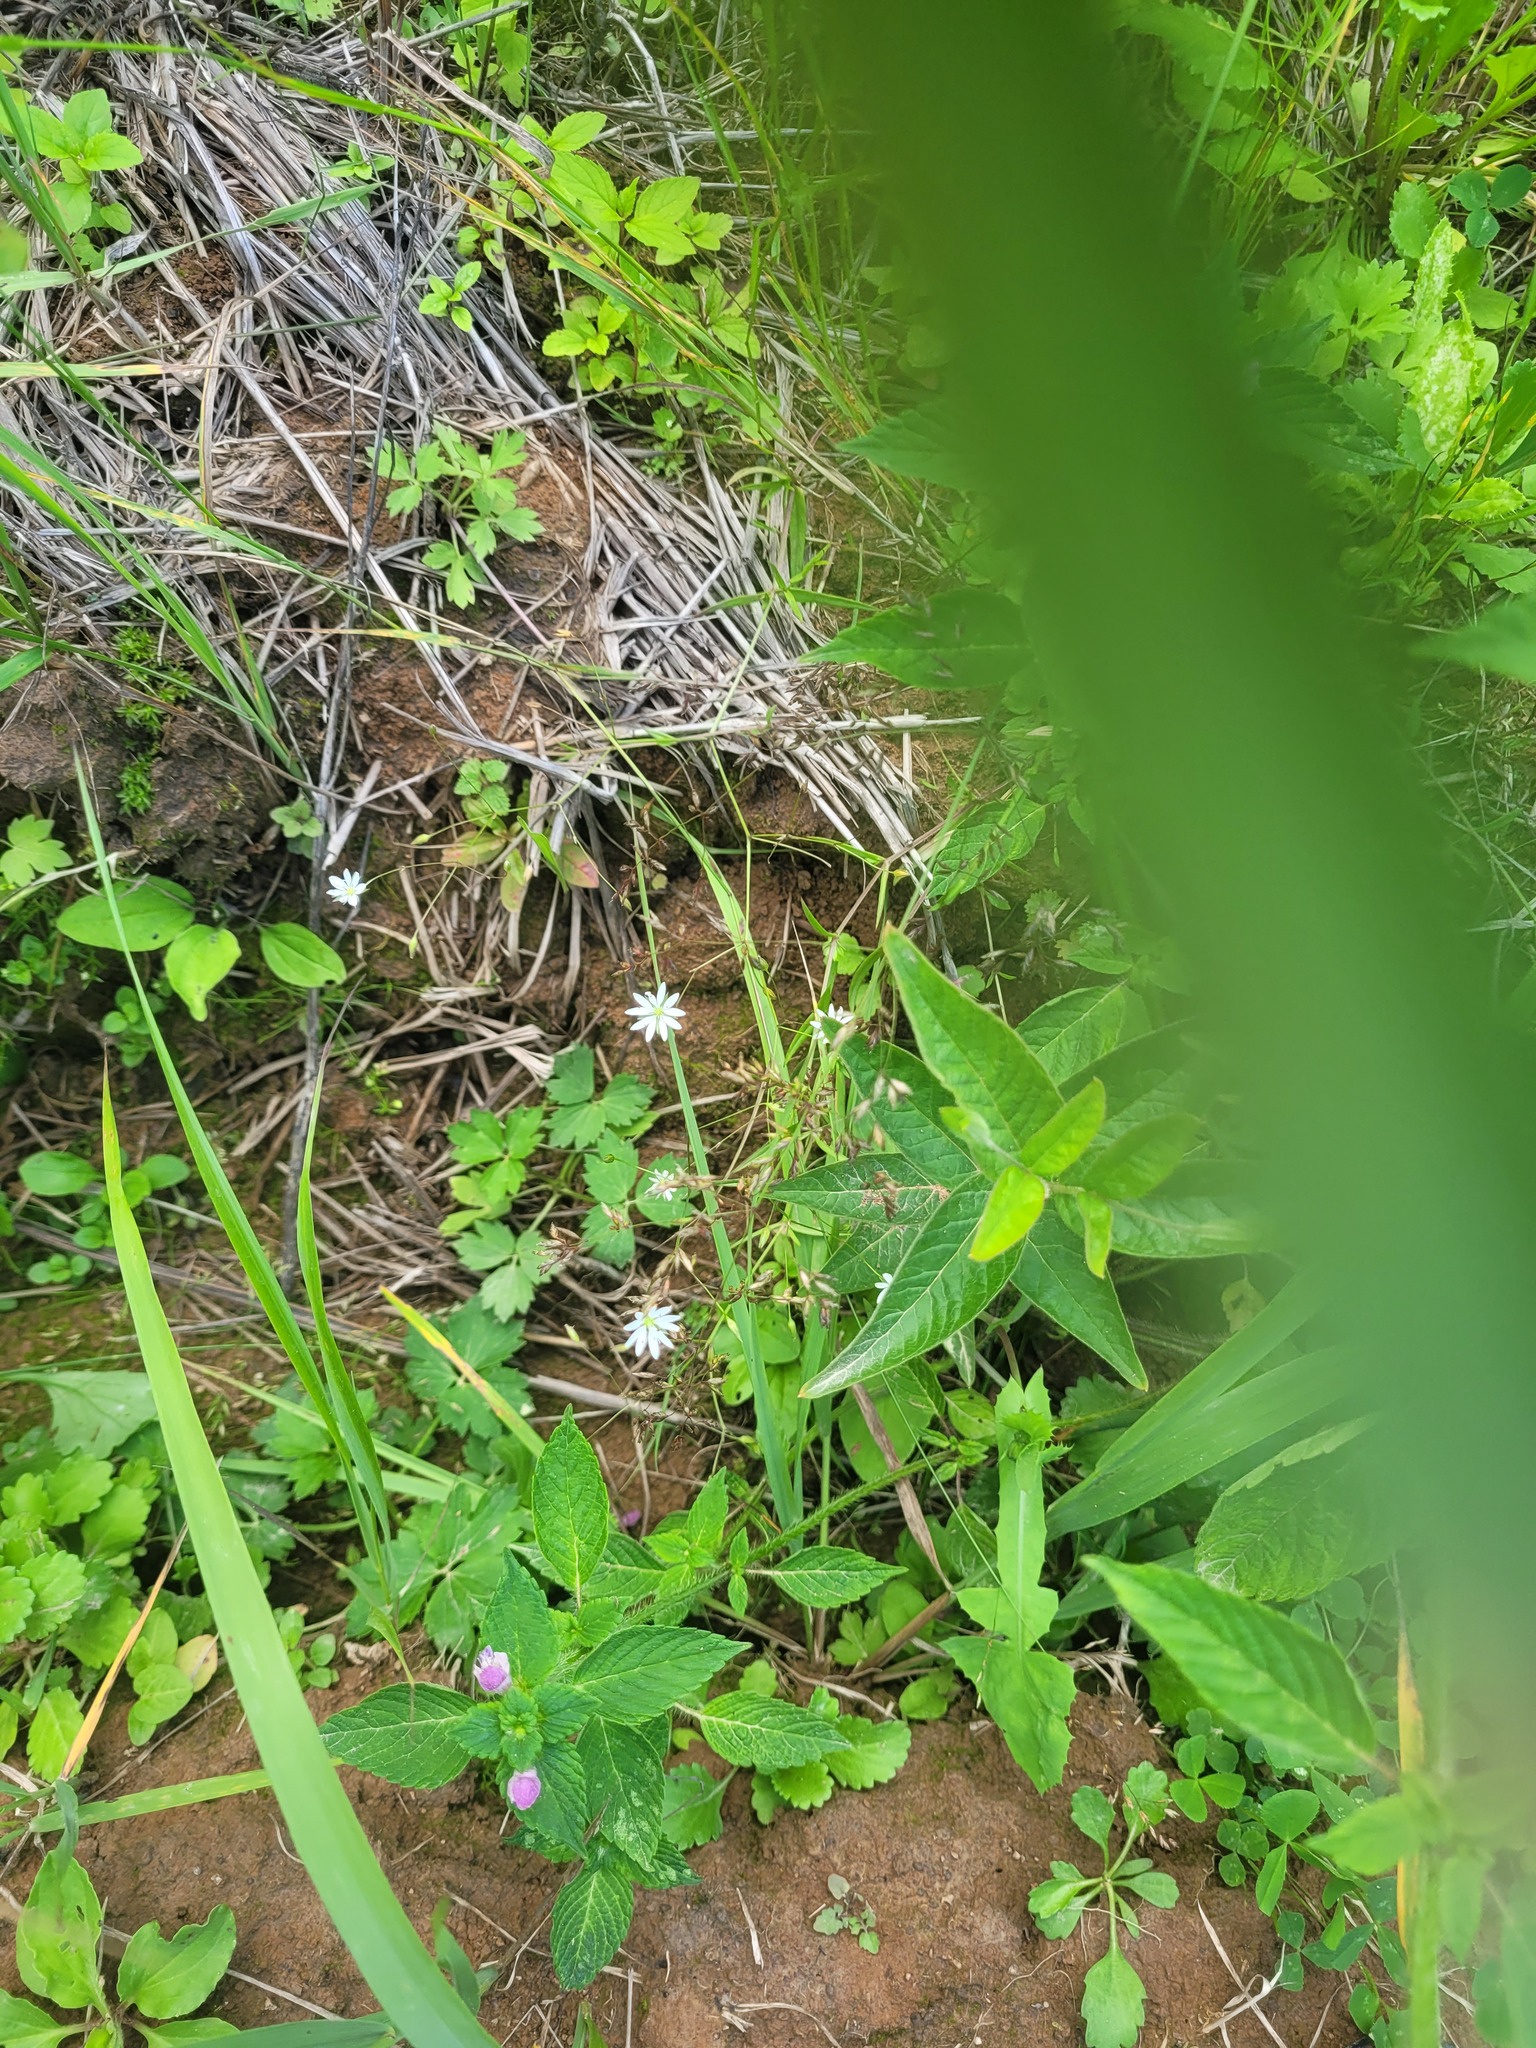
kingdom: Plantae
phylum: Tracheophyta
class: Magnoliopsida
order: Caryophyllales
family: Caryophyllaceae
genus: Stellaria
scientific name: Stellaria graminea
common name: Grass-like starwort
